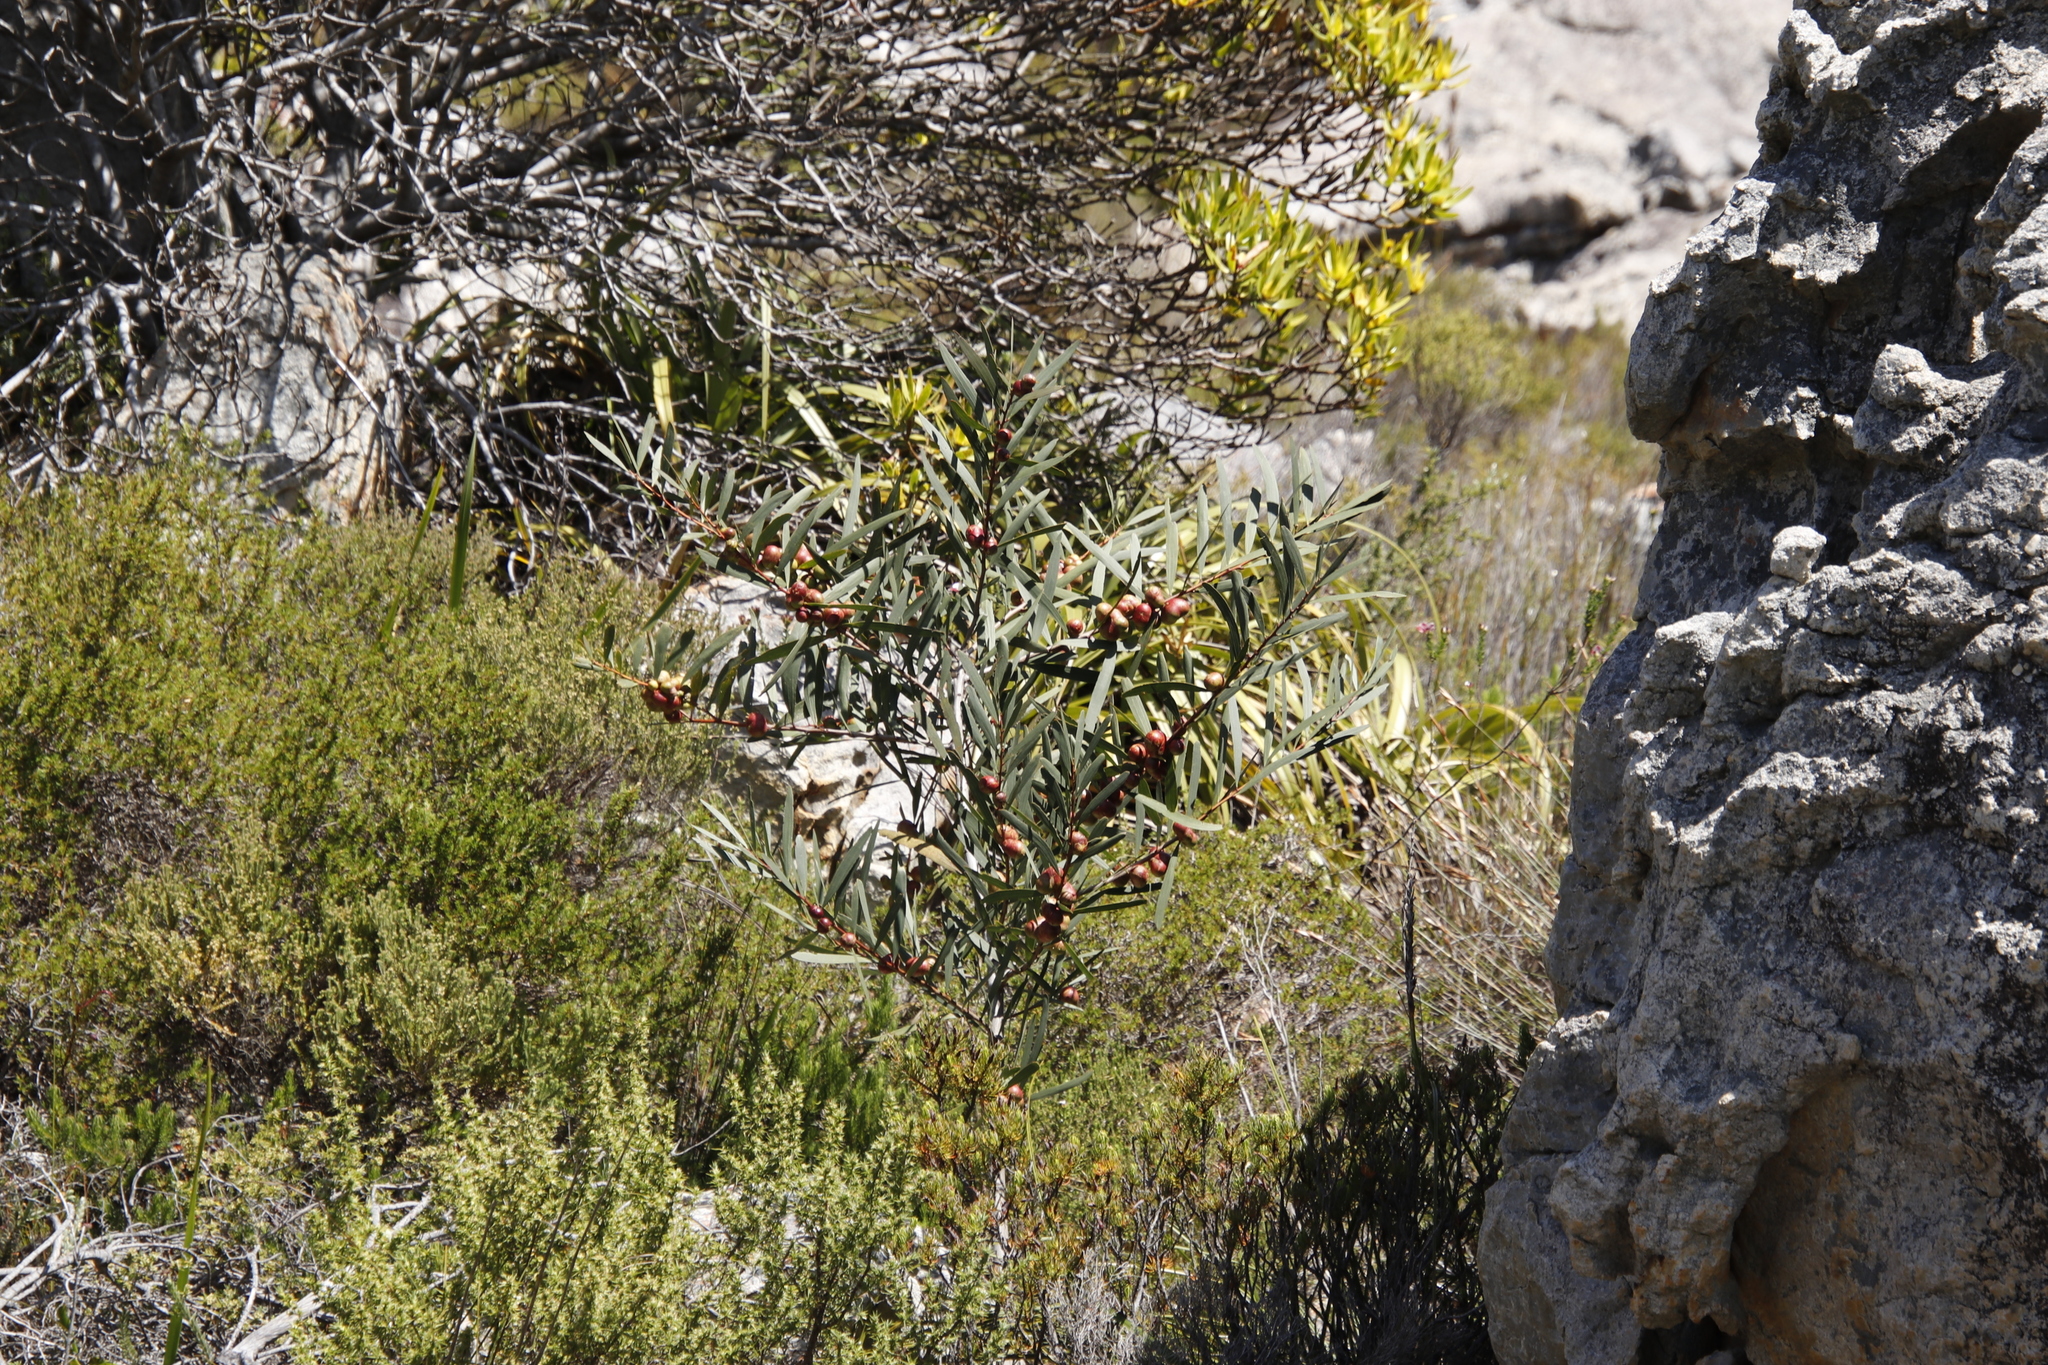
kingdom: Plantae
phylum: Tracheophyta
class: Magnoliopsida
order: Fabales
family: Fabaceae
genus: Acacia
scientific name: Acacia longifolia
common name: Sydney golden wattle
